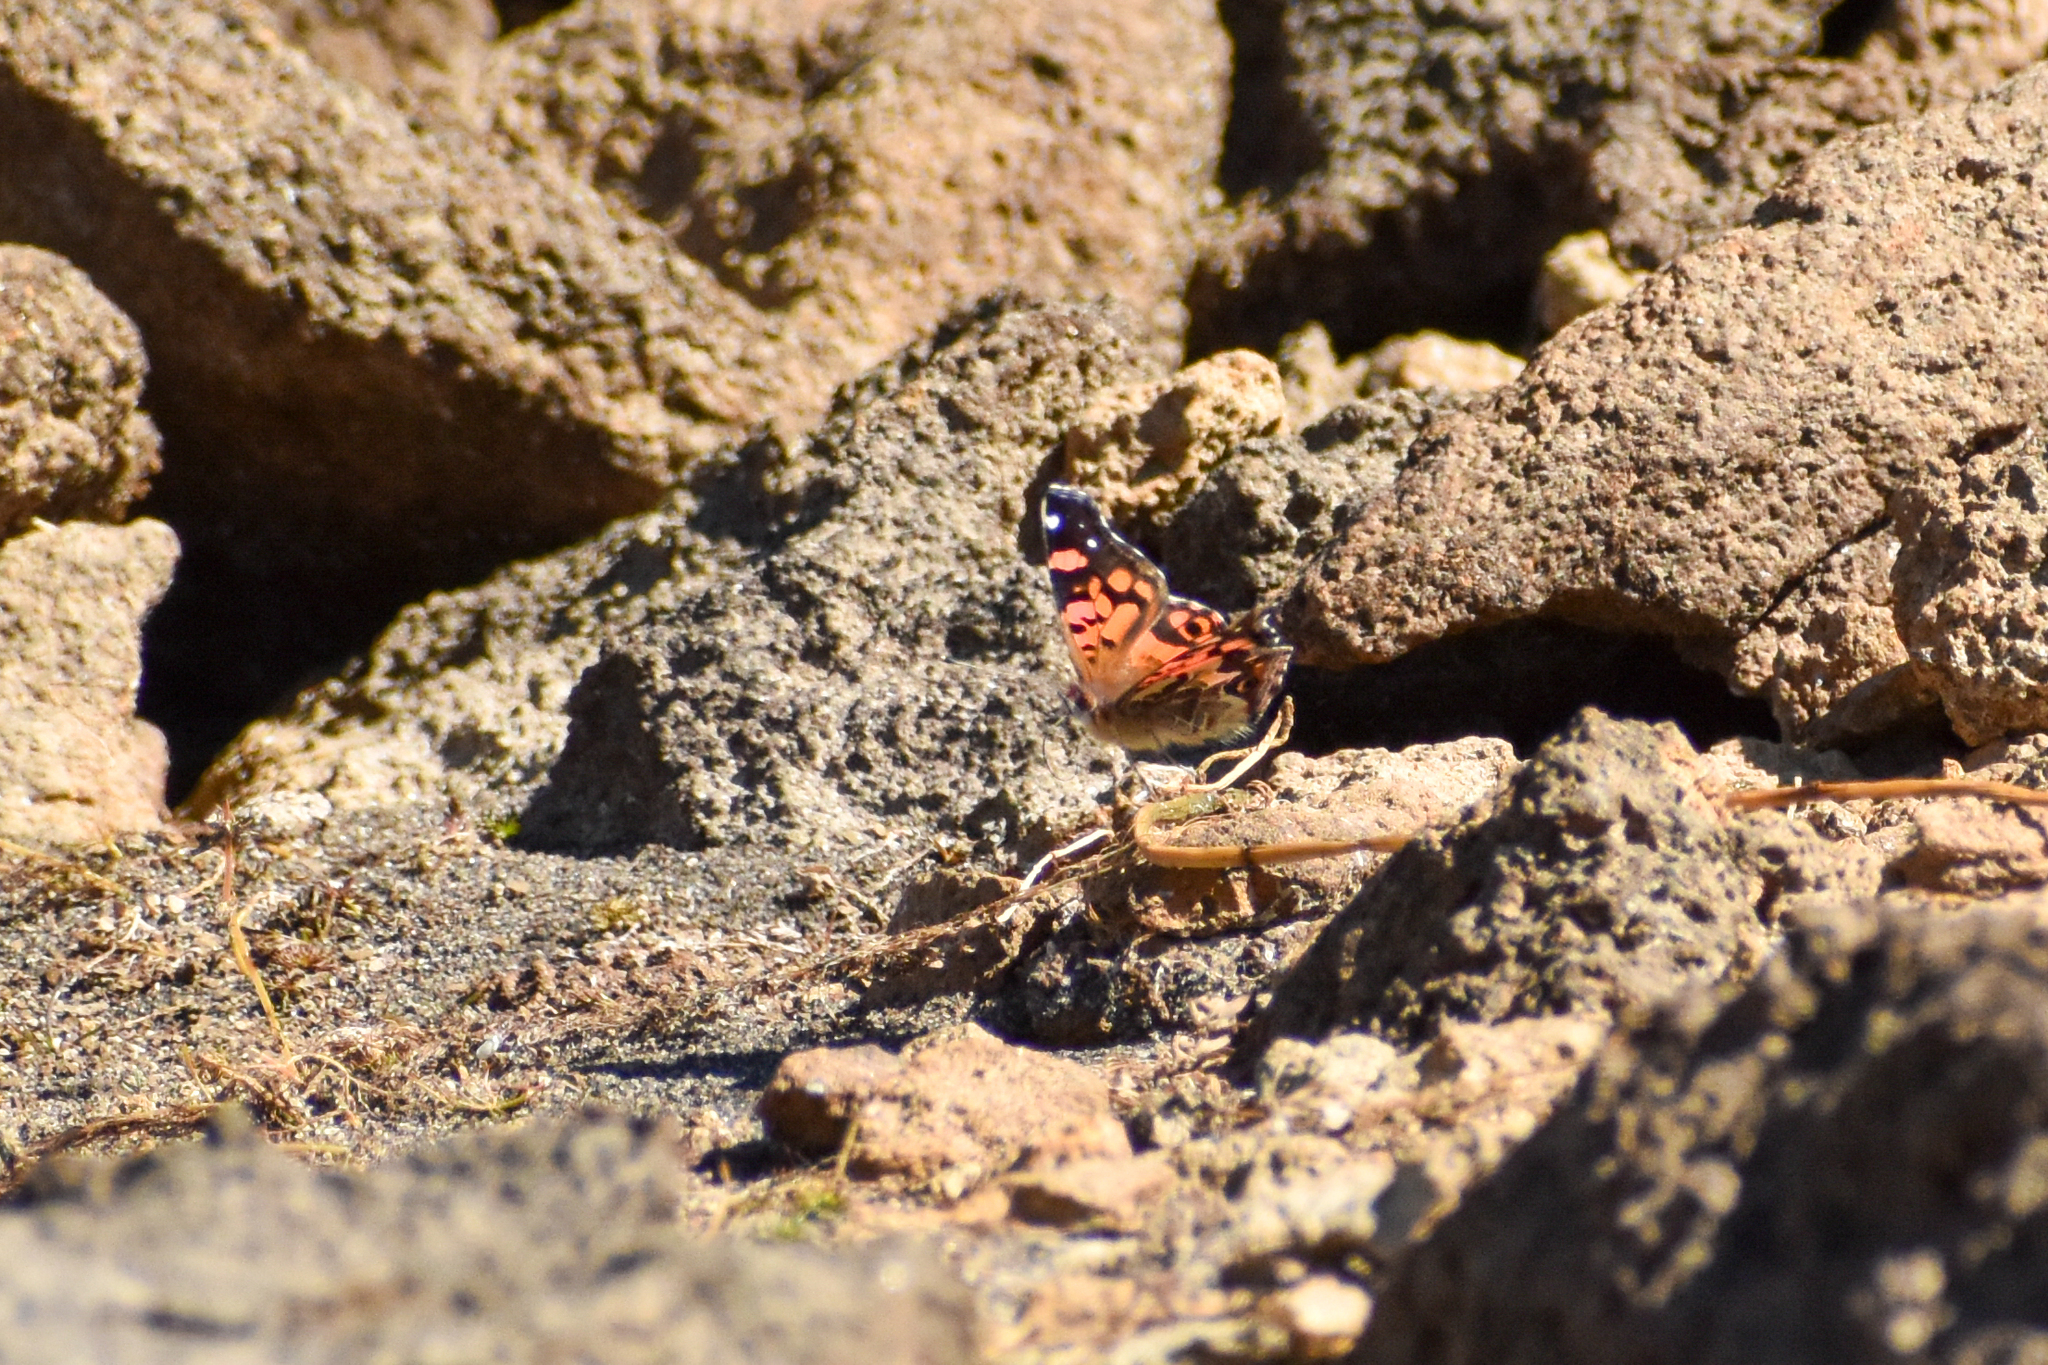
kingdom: Animalia
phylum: Arthropoda
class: Insecta
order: Lepidoptera
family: Nymphalidae
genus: Vanessa
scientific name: Vanessa terpsichore
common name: Chilean lady
